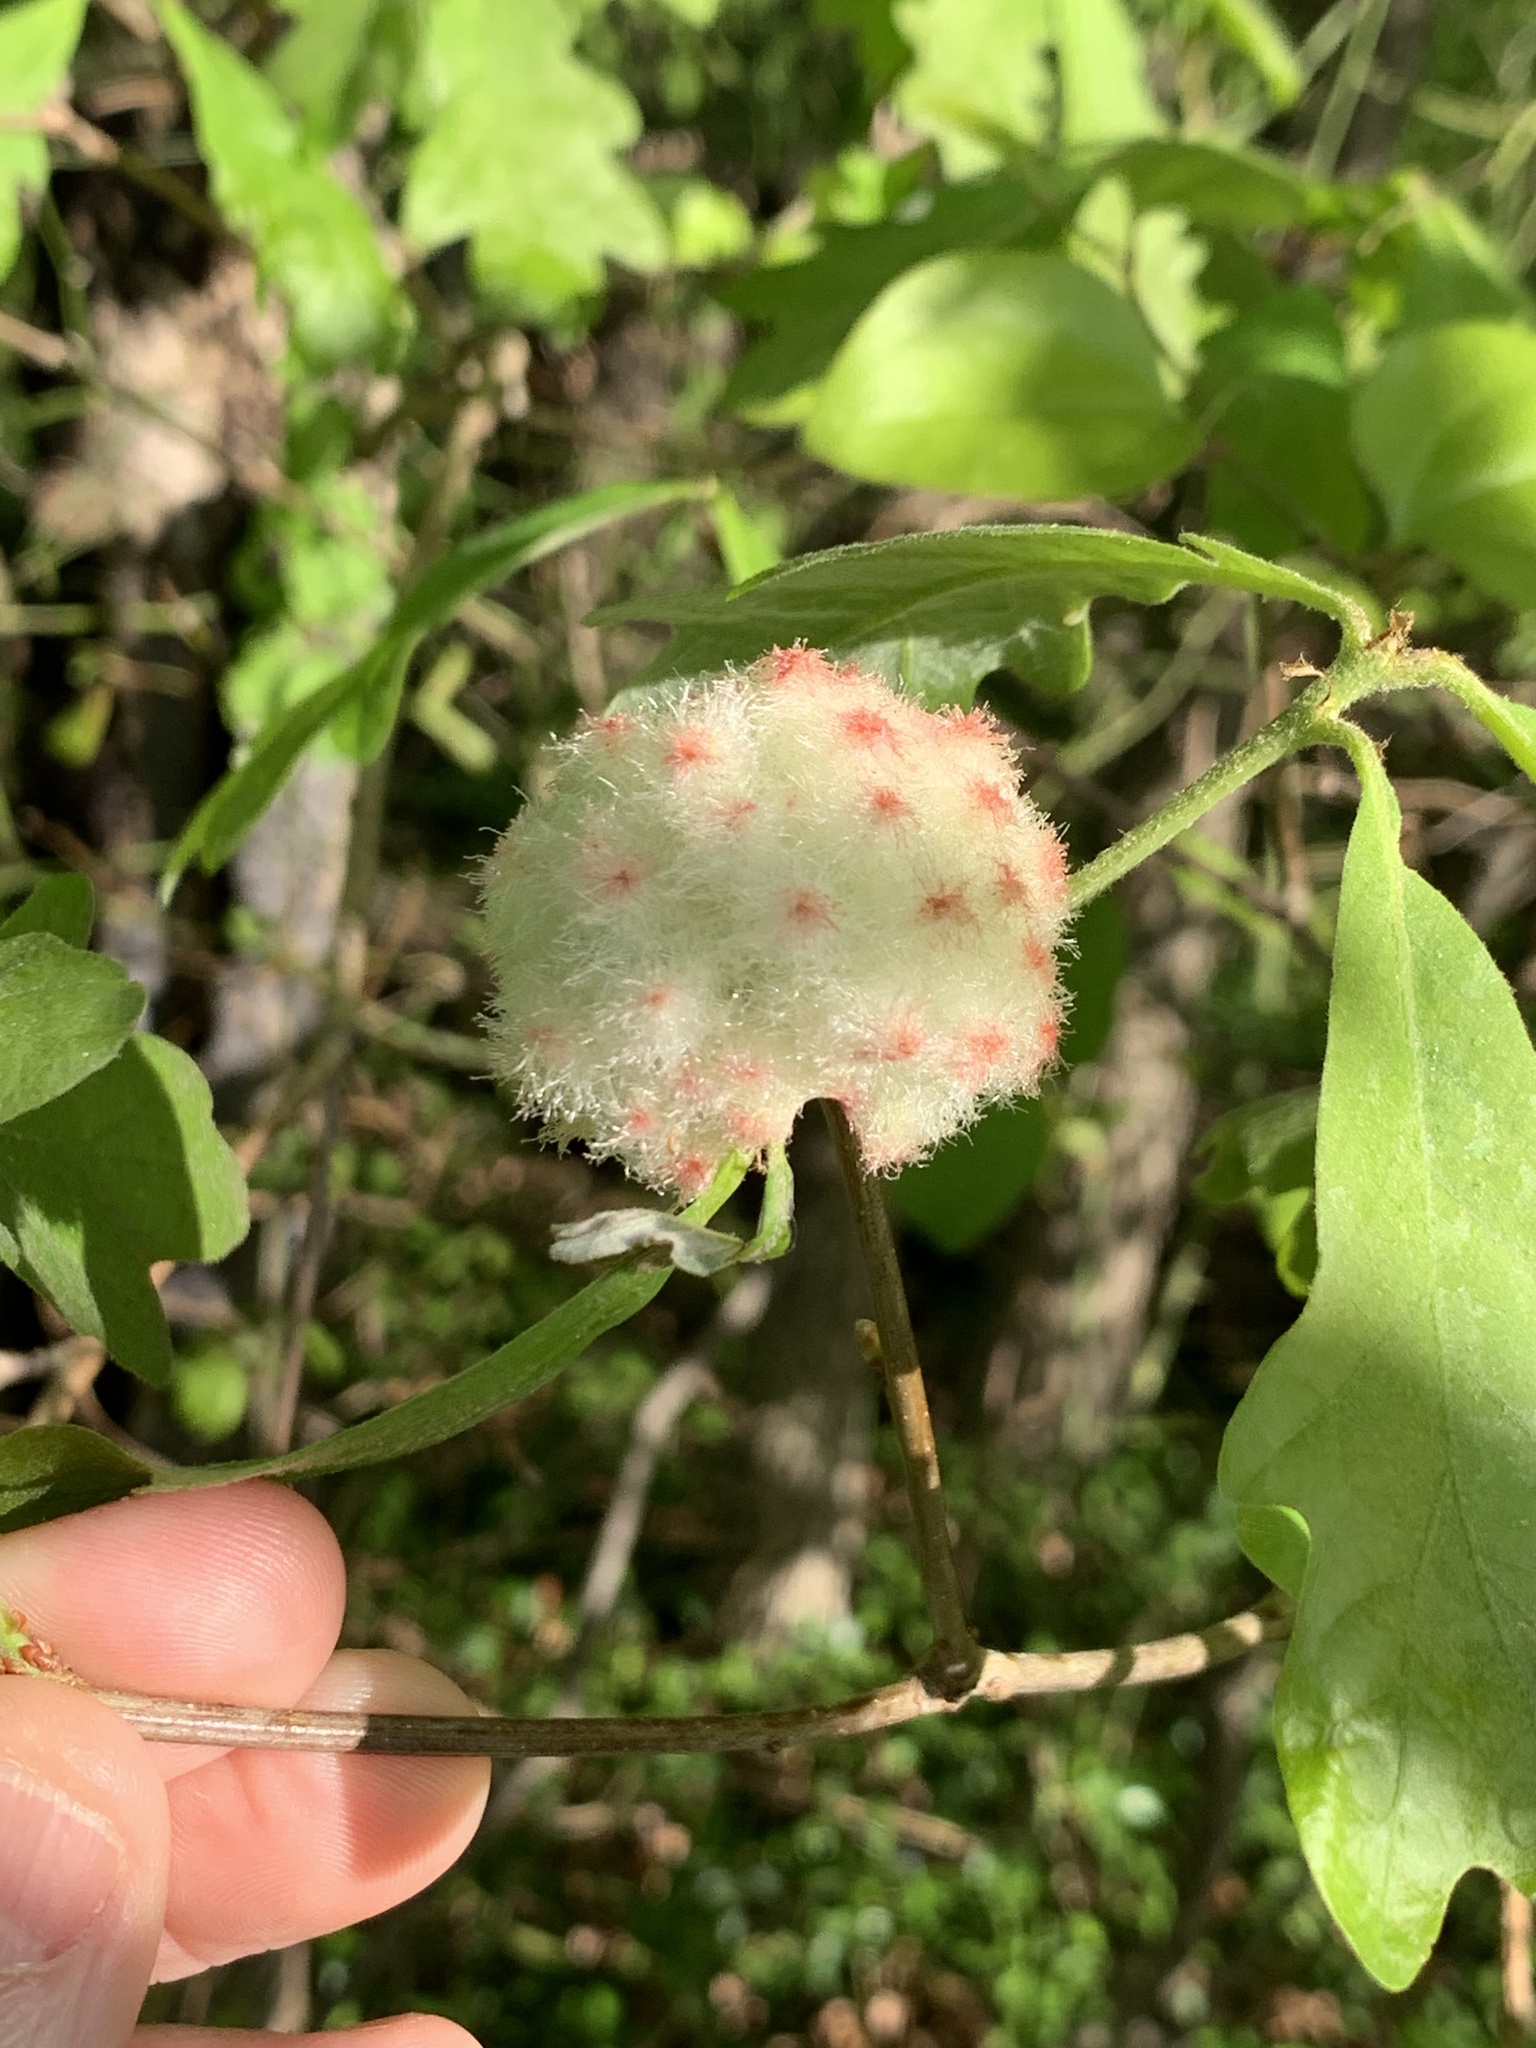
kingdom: Animalia
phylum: Arthropoda
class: Insecta
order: Hymenoptera
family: Cynipidae
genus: Callirhytis
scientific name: Callirhytis
